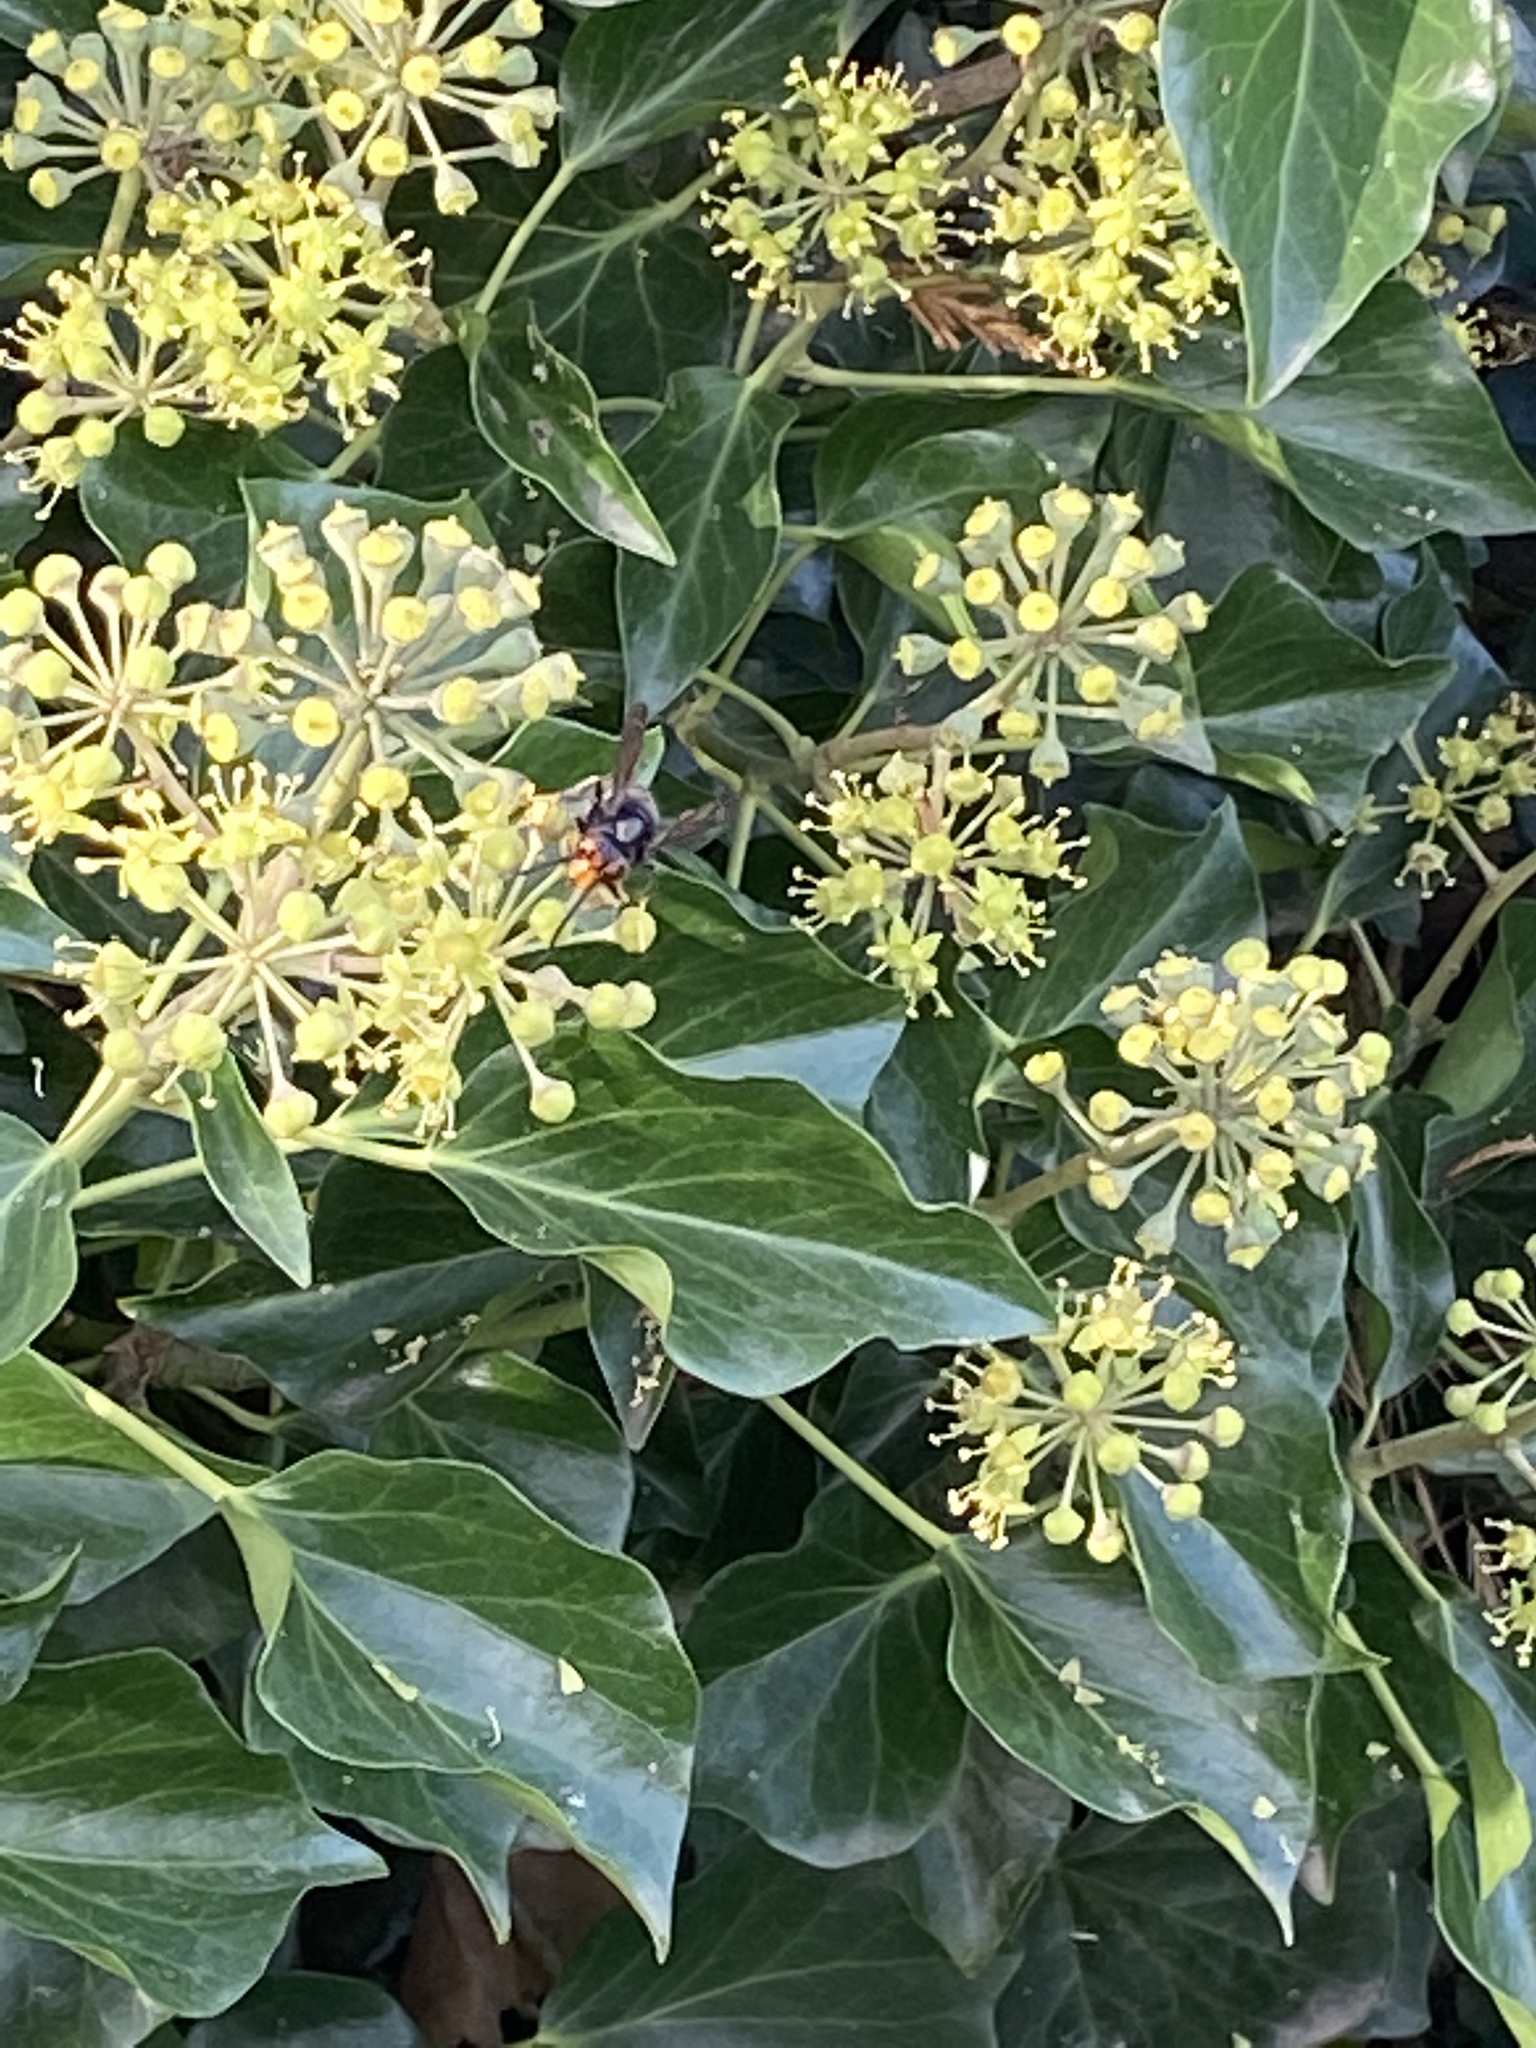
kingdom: Animalia
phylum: Arthropoda
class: Insecta
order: Hymenoptera
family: Vespidae
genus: Vespa
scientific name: Vespa velutina
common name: Asian hornet
